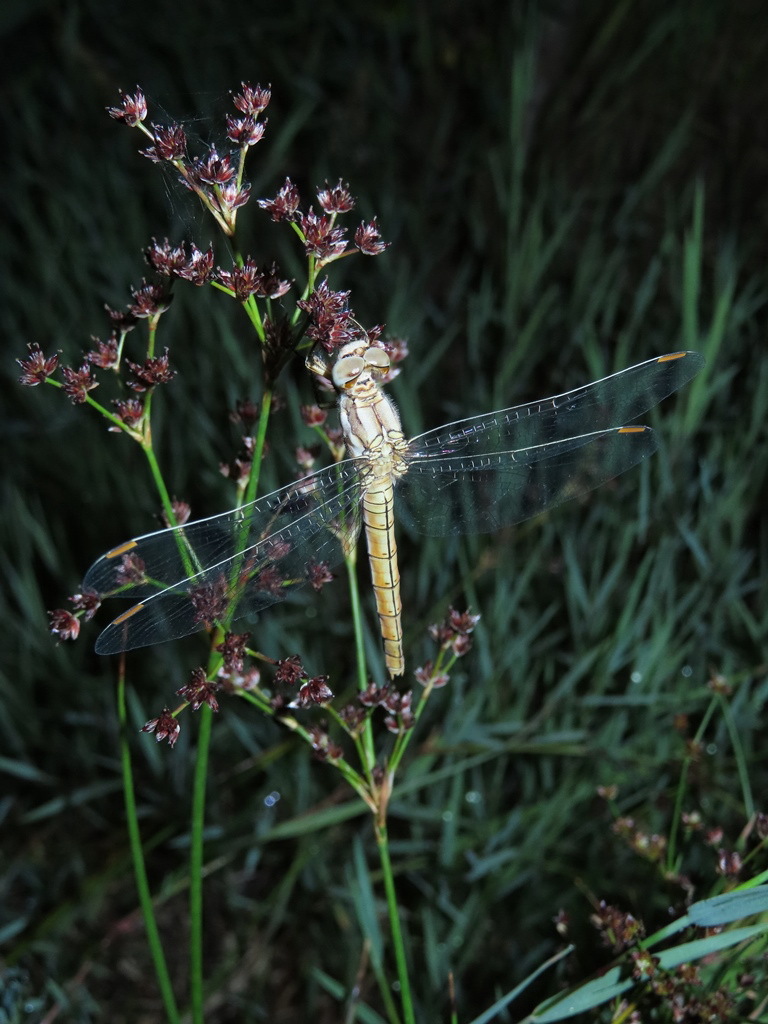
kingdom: Animalia
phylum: Arthropoda
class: Insecta
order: Odonata
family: Libellulidae
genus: Orthetrum
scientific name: Orthetrum brunneum
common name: Southern skimmer
